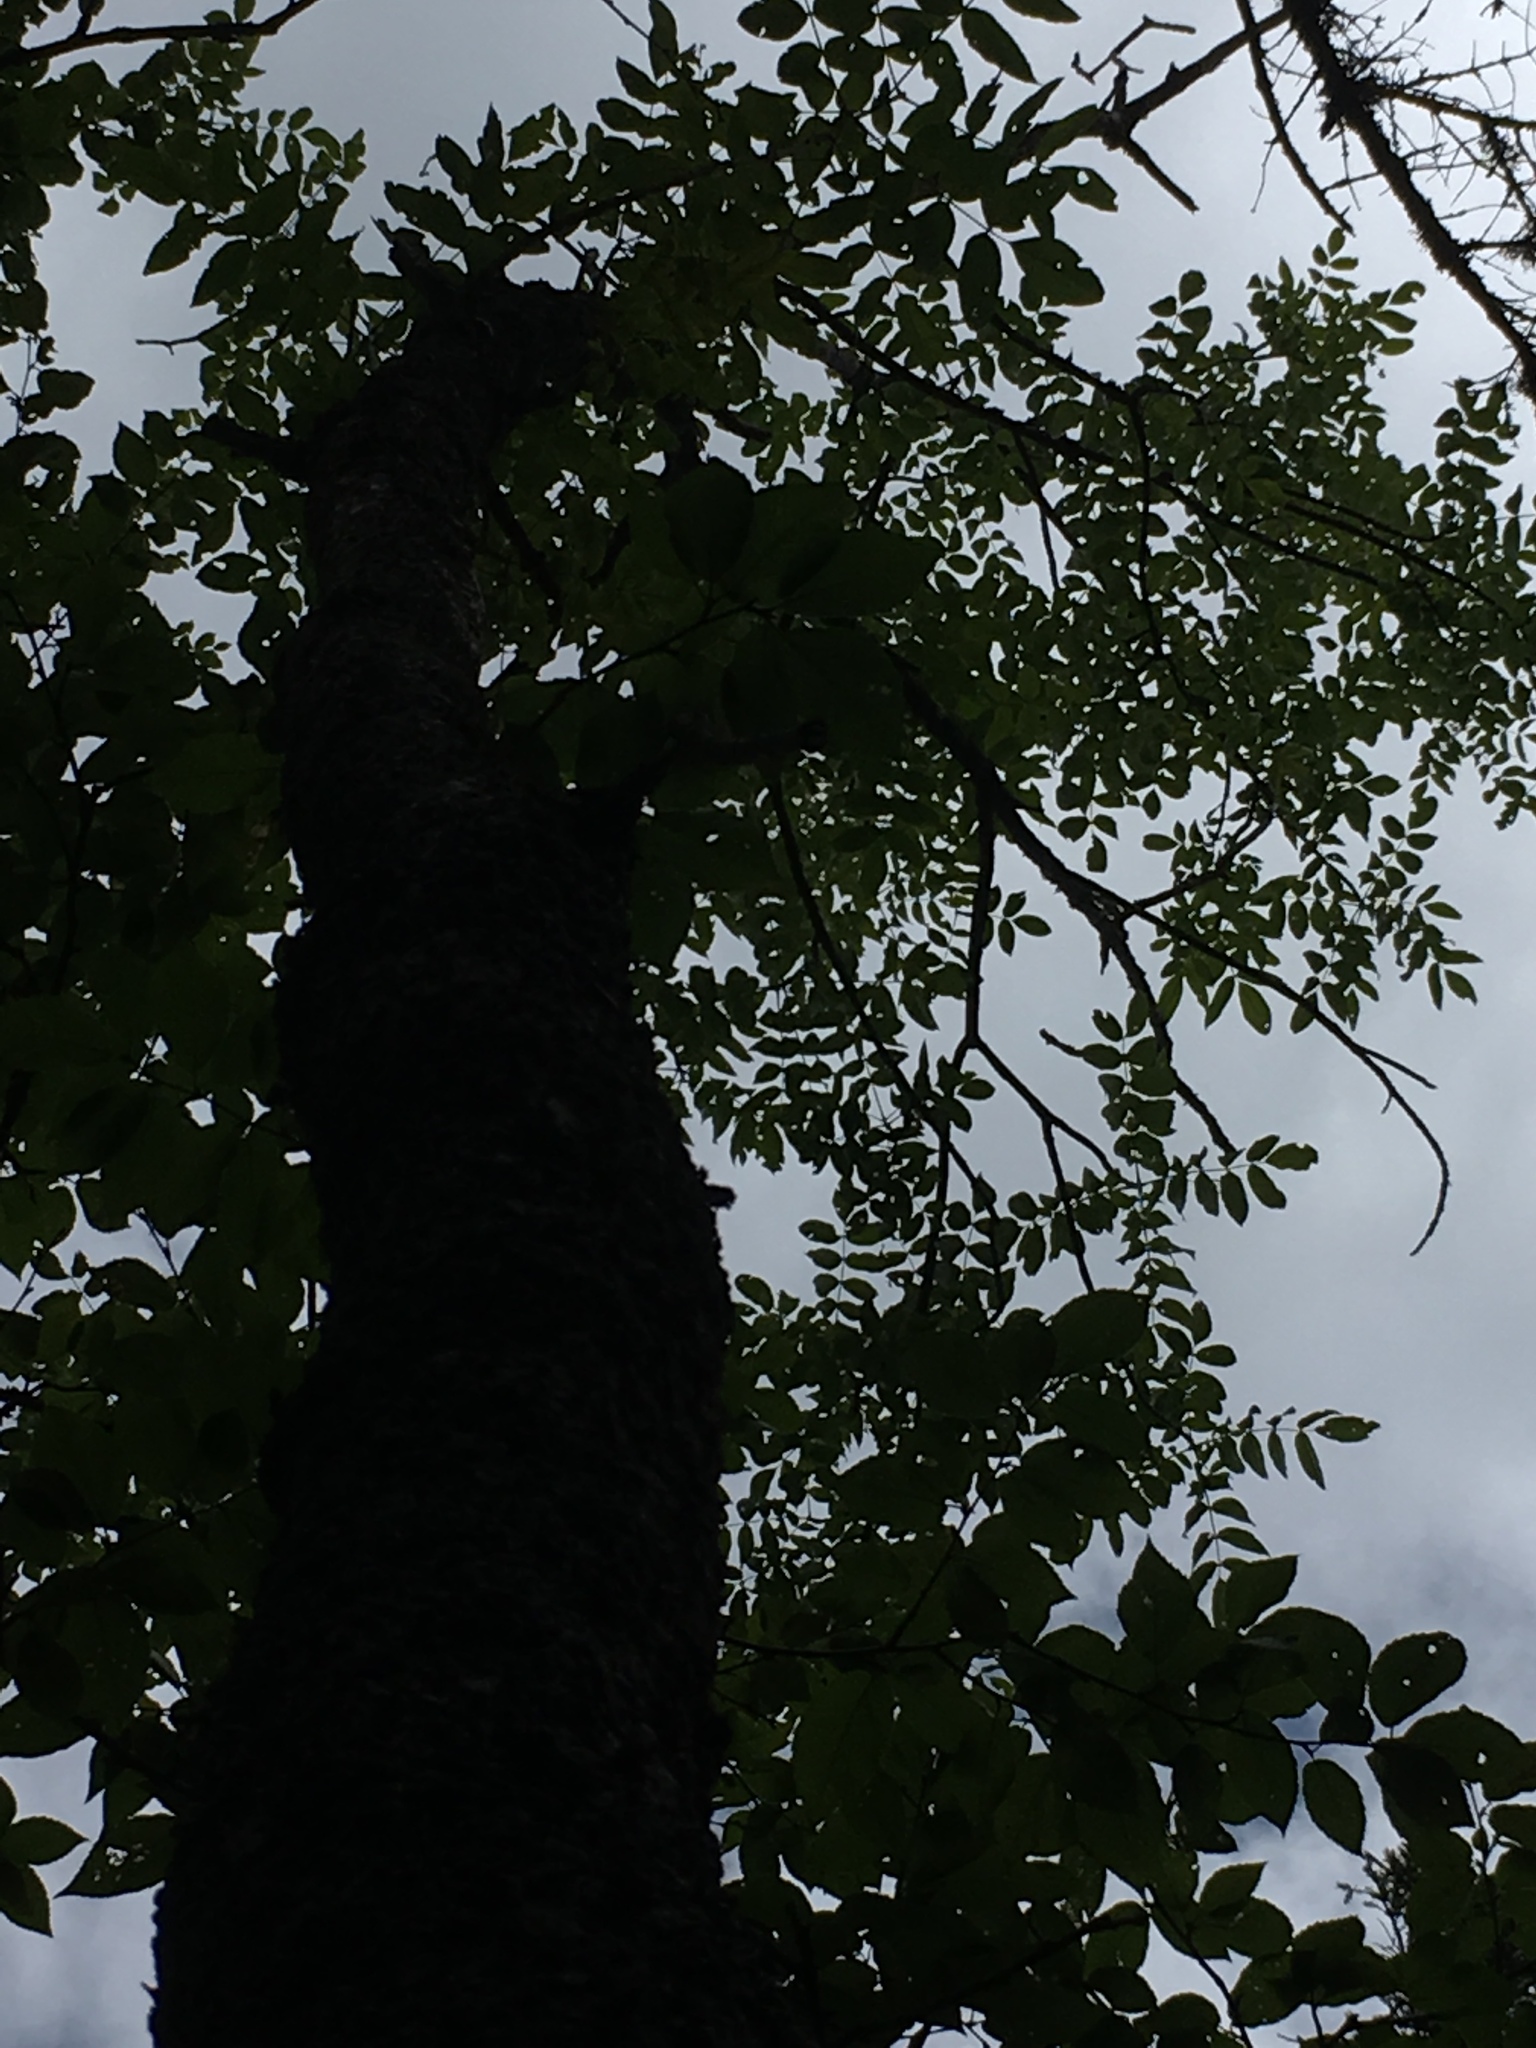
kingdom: Plantae
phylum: Tracheophyta
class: Magnoliopsida
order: Lamiales
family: Oleaceae
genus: Fraxinus
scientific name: Fraxinus nigra
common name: Black ash
